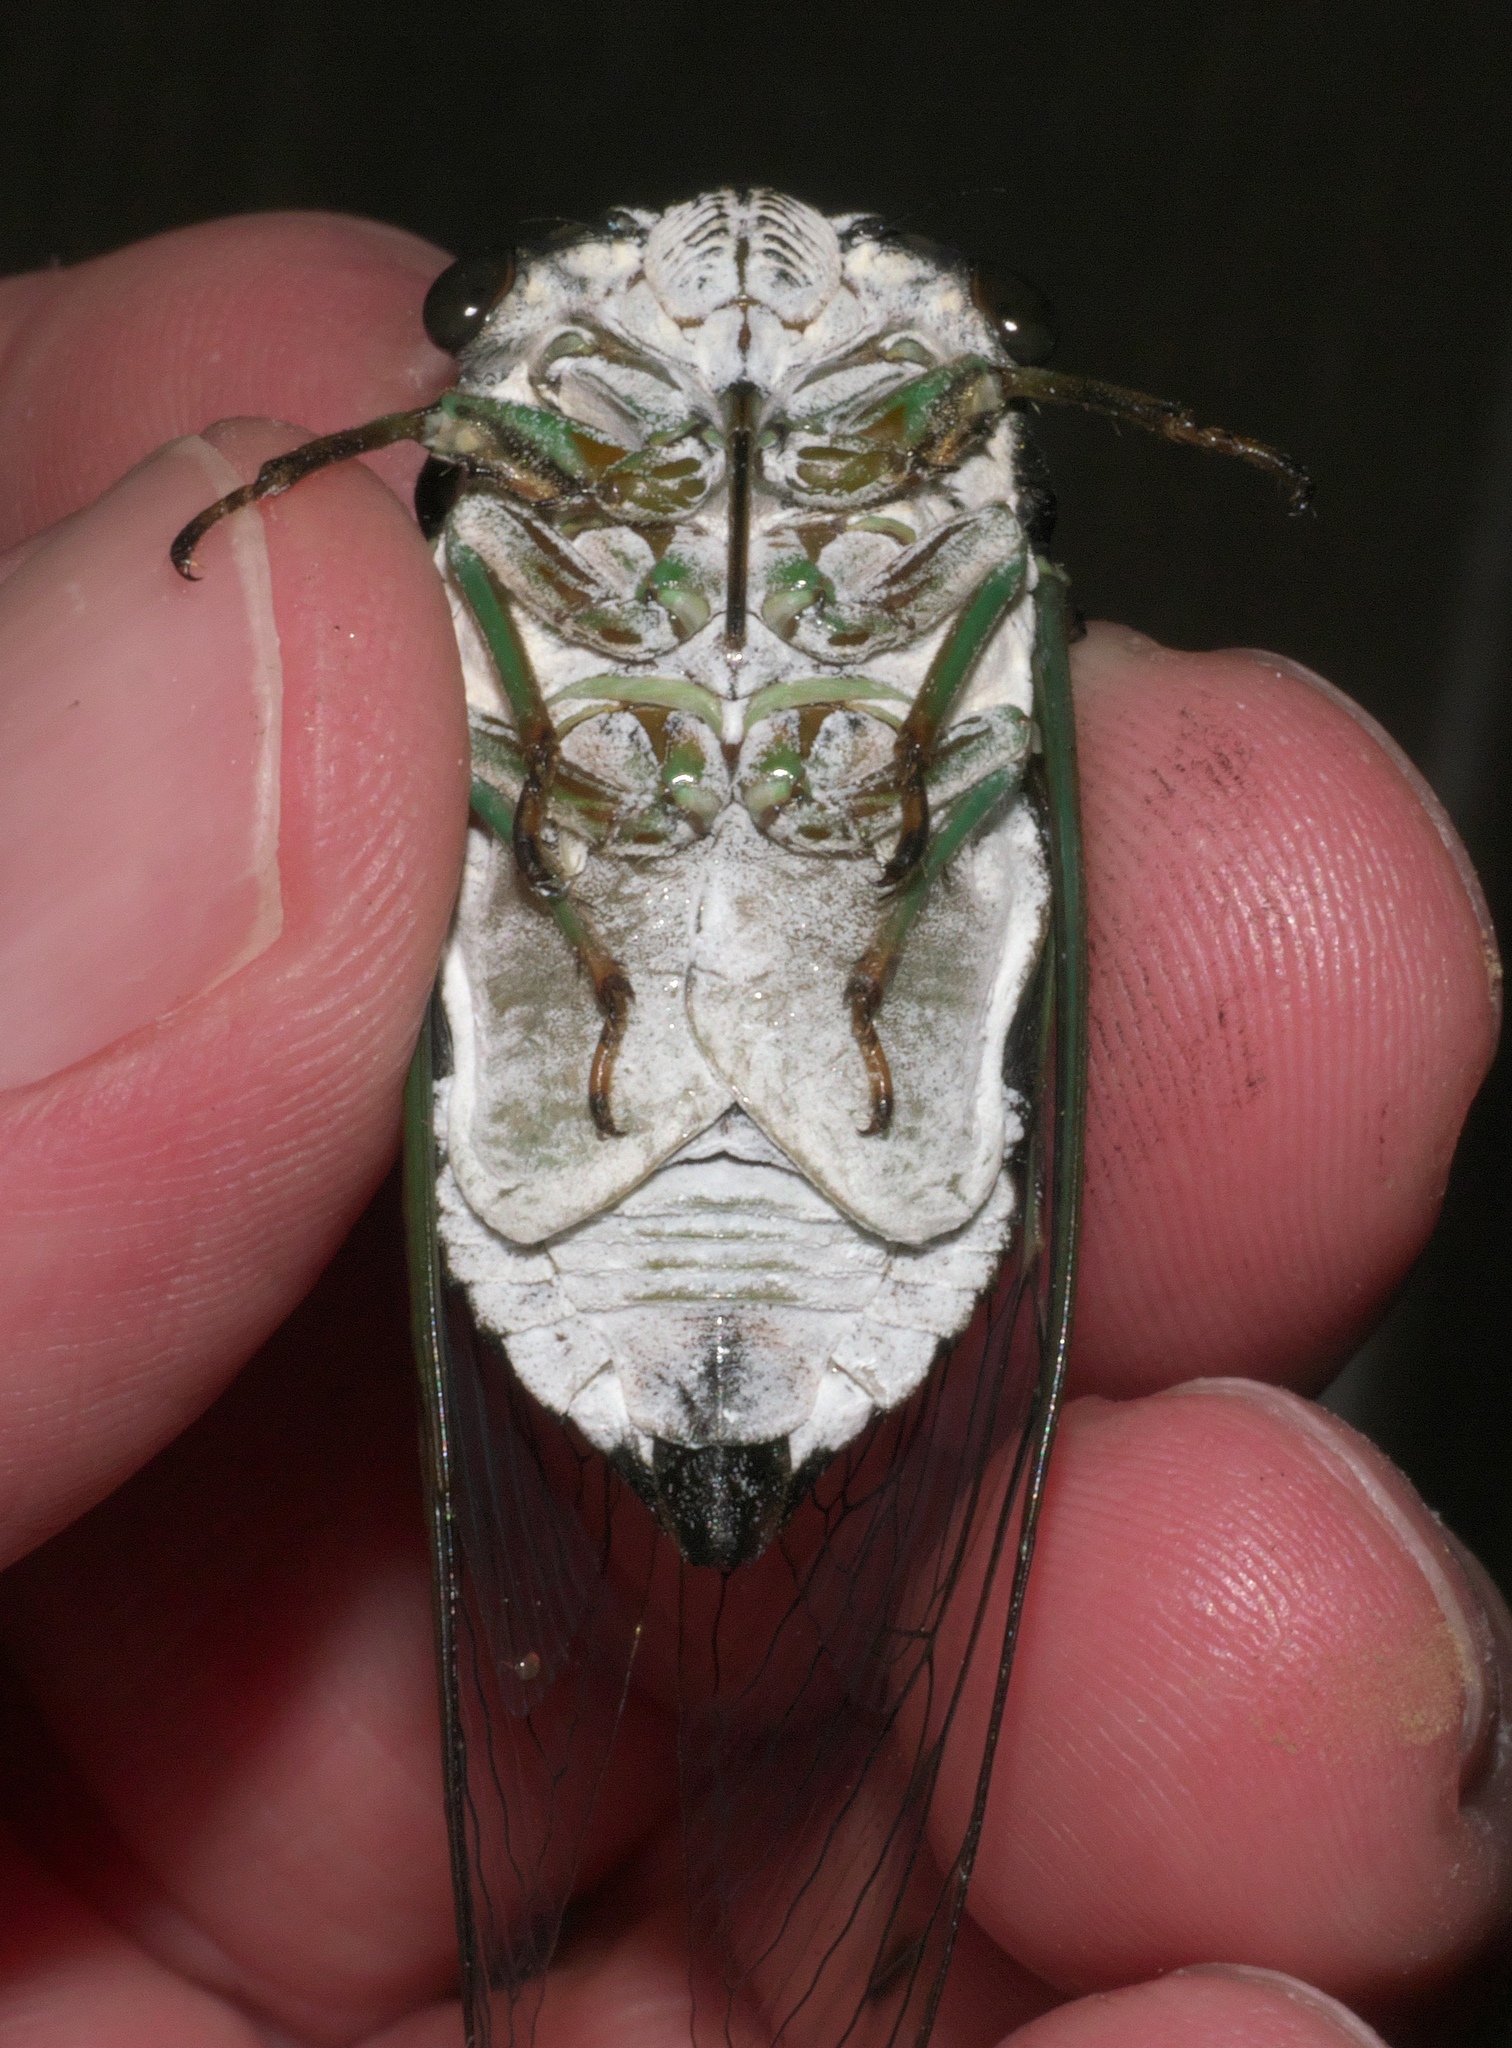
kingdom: Animalia
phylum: Arthropoda
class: Insecta
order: Hemiptera
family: Cicadidae
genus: Neotibicen
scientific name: Neotibicen tibicen
